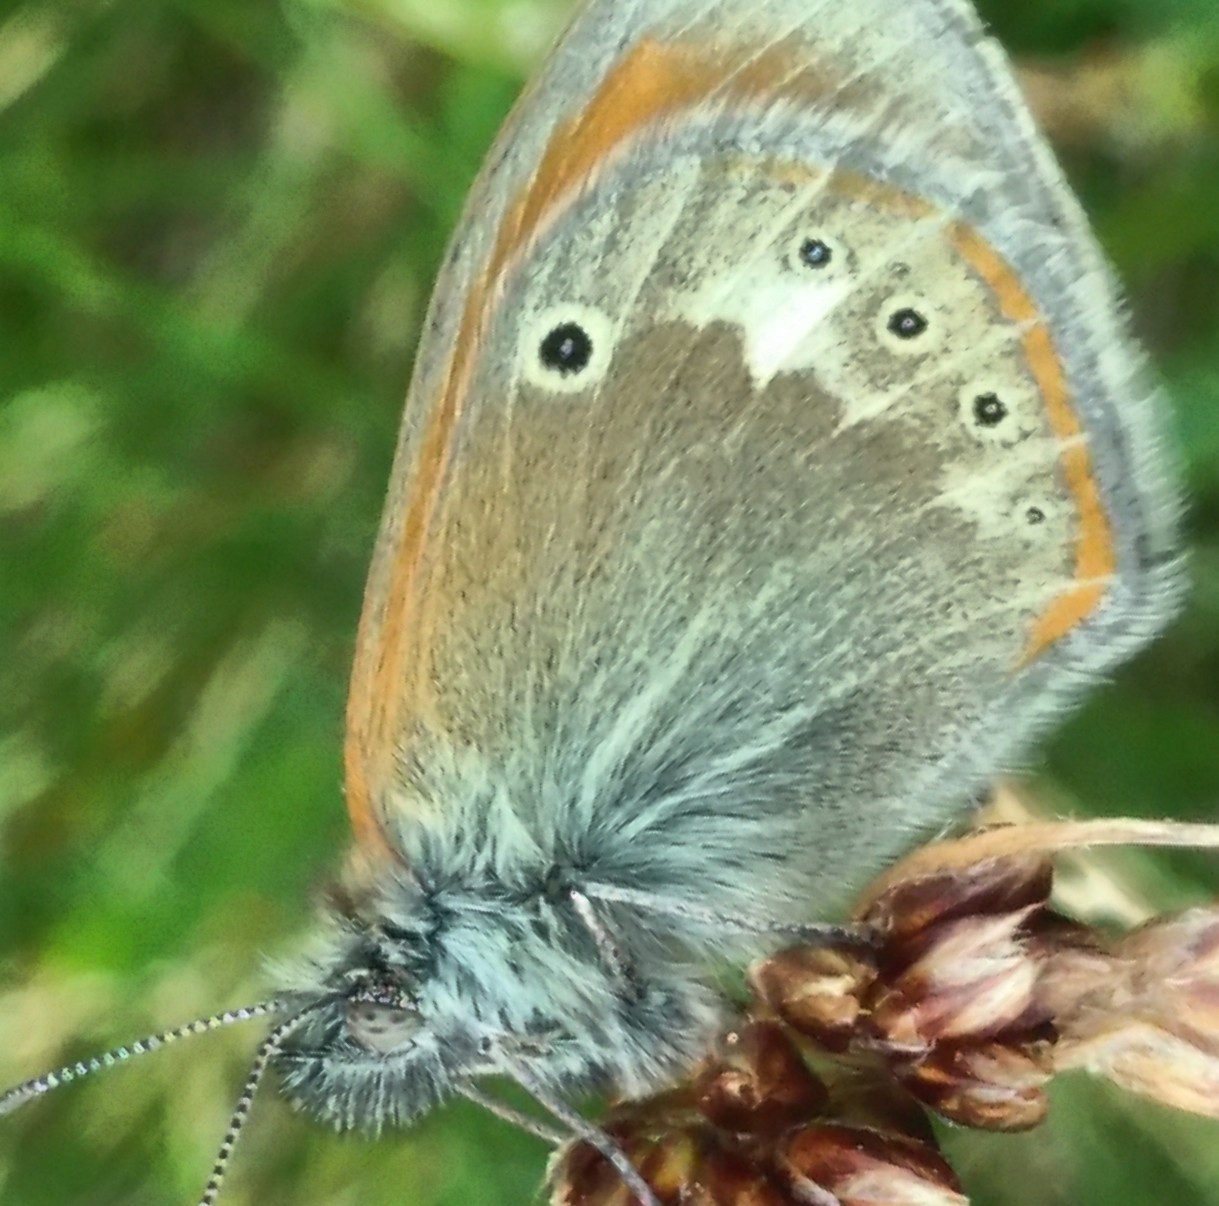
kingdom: Animalia
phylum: Arthropoda
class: Insecta
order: Lepidoptera
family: Nymphalidae
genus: Coenonympha
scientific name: Coenonympha iphis
